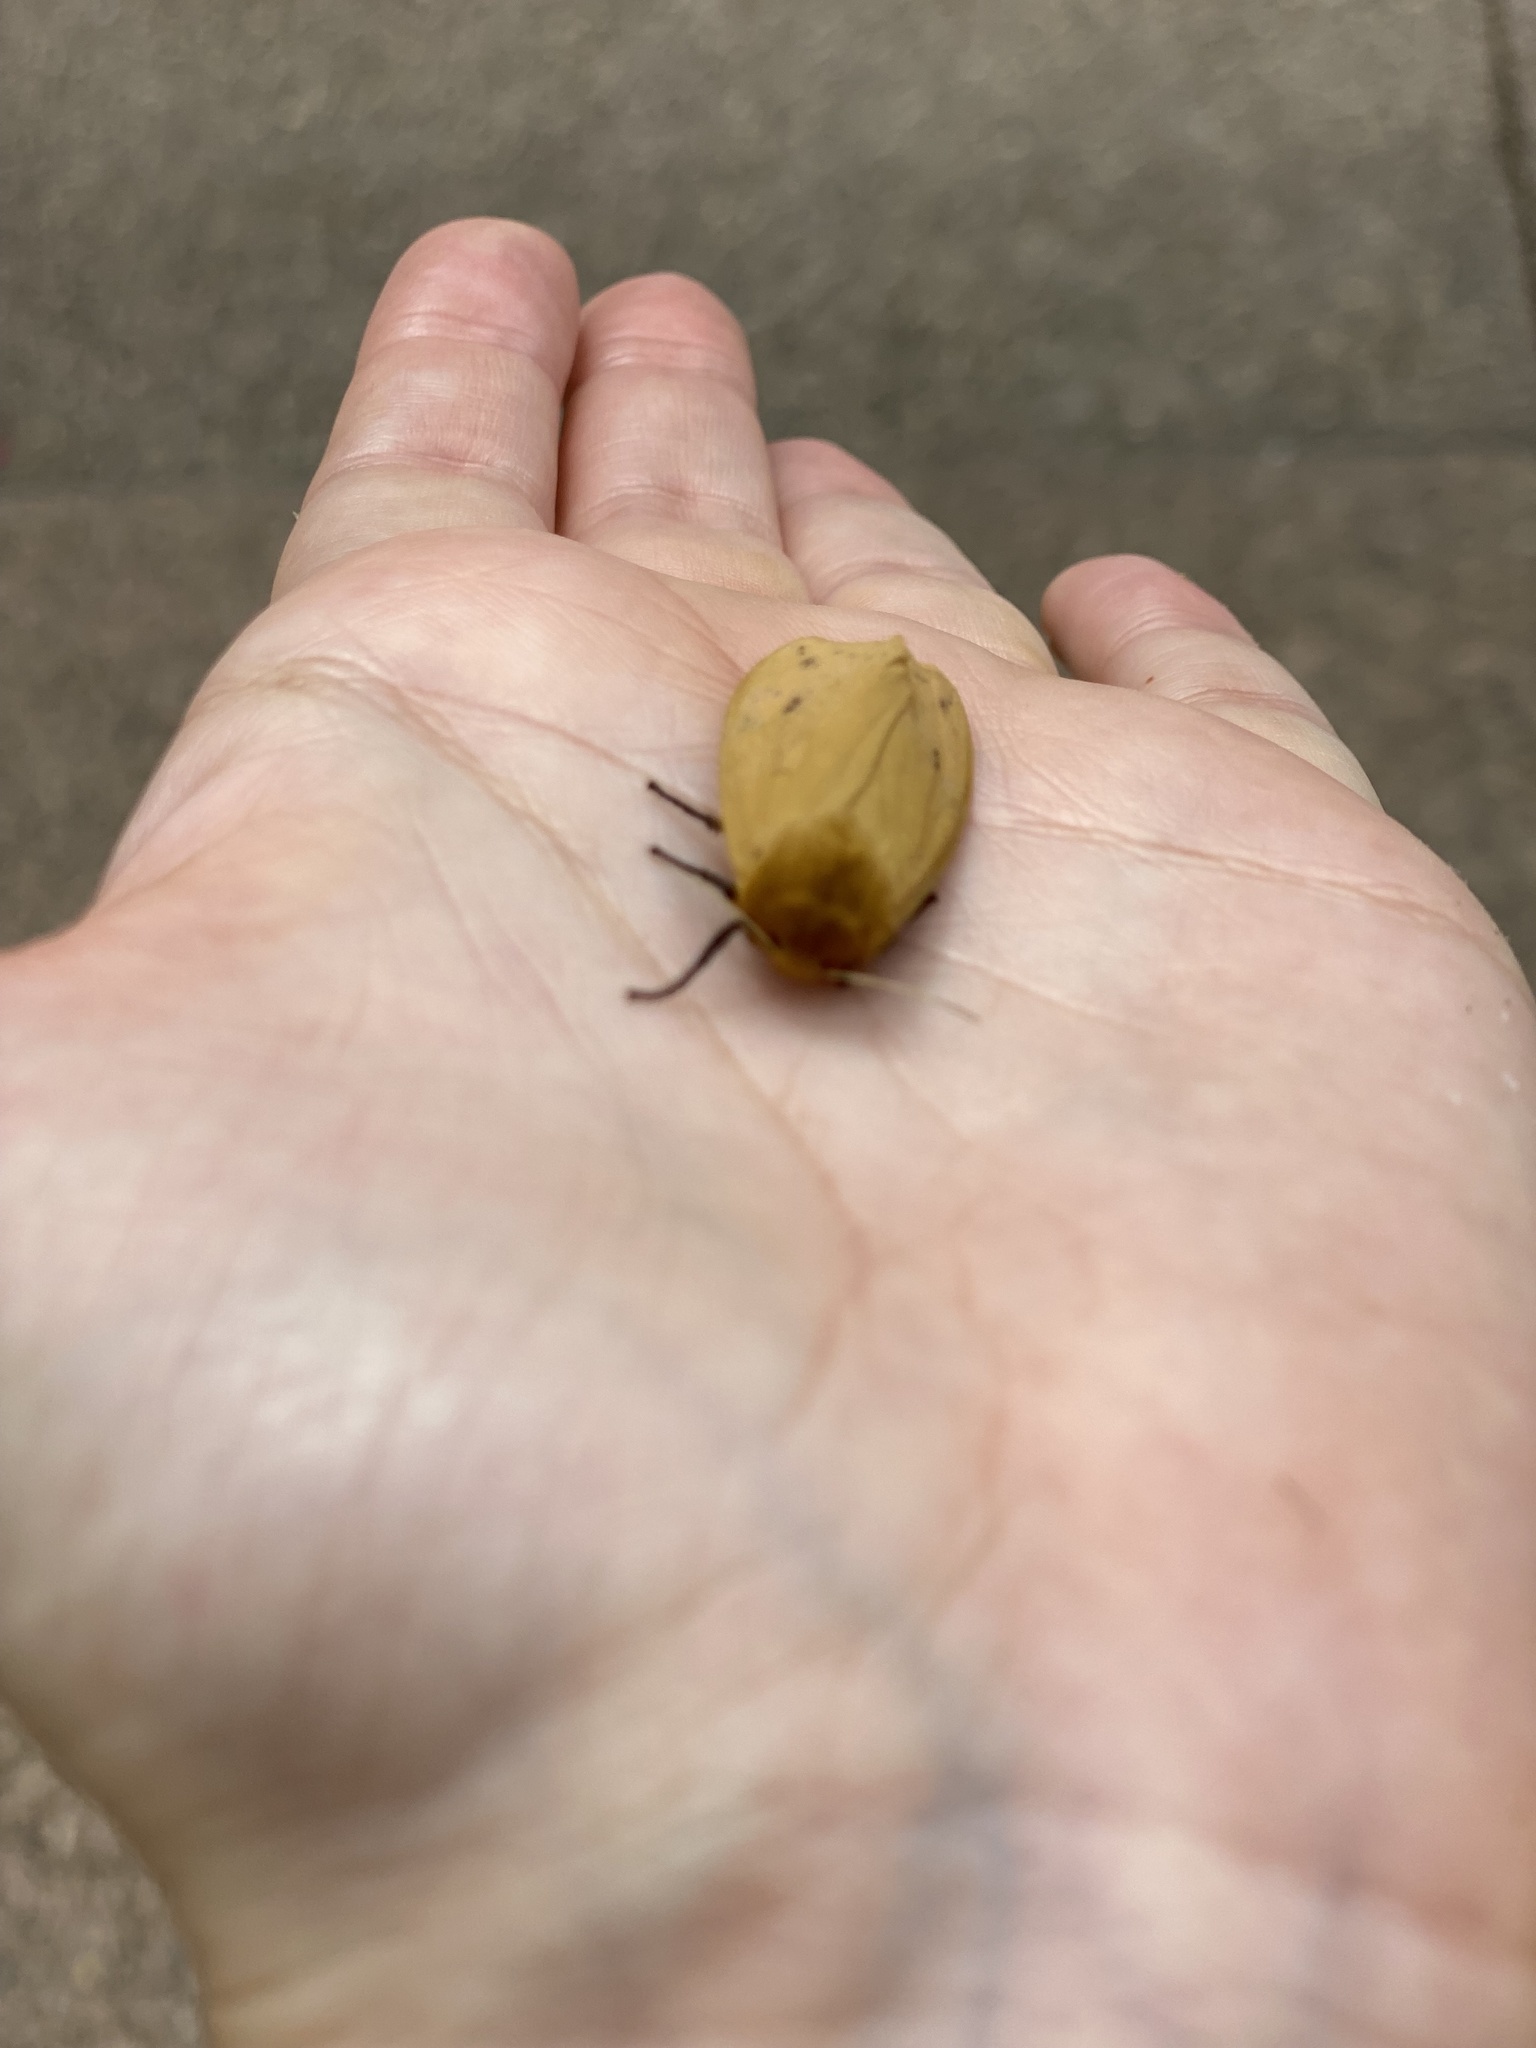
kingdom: Animalia
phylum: Arthropoda
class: Insecta
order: Lepidoptera
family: Erebidae
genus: Pyrrharctia
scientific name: Pyrrharctia isabella
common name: Isabella tiger moth
